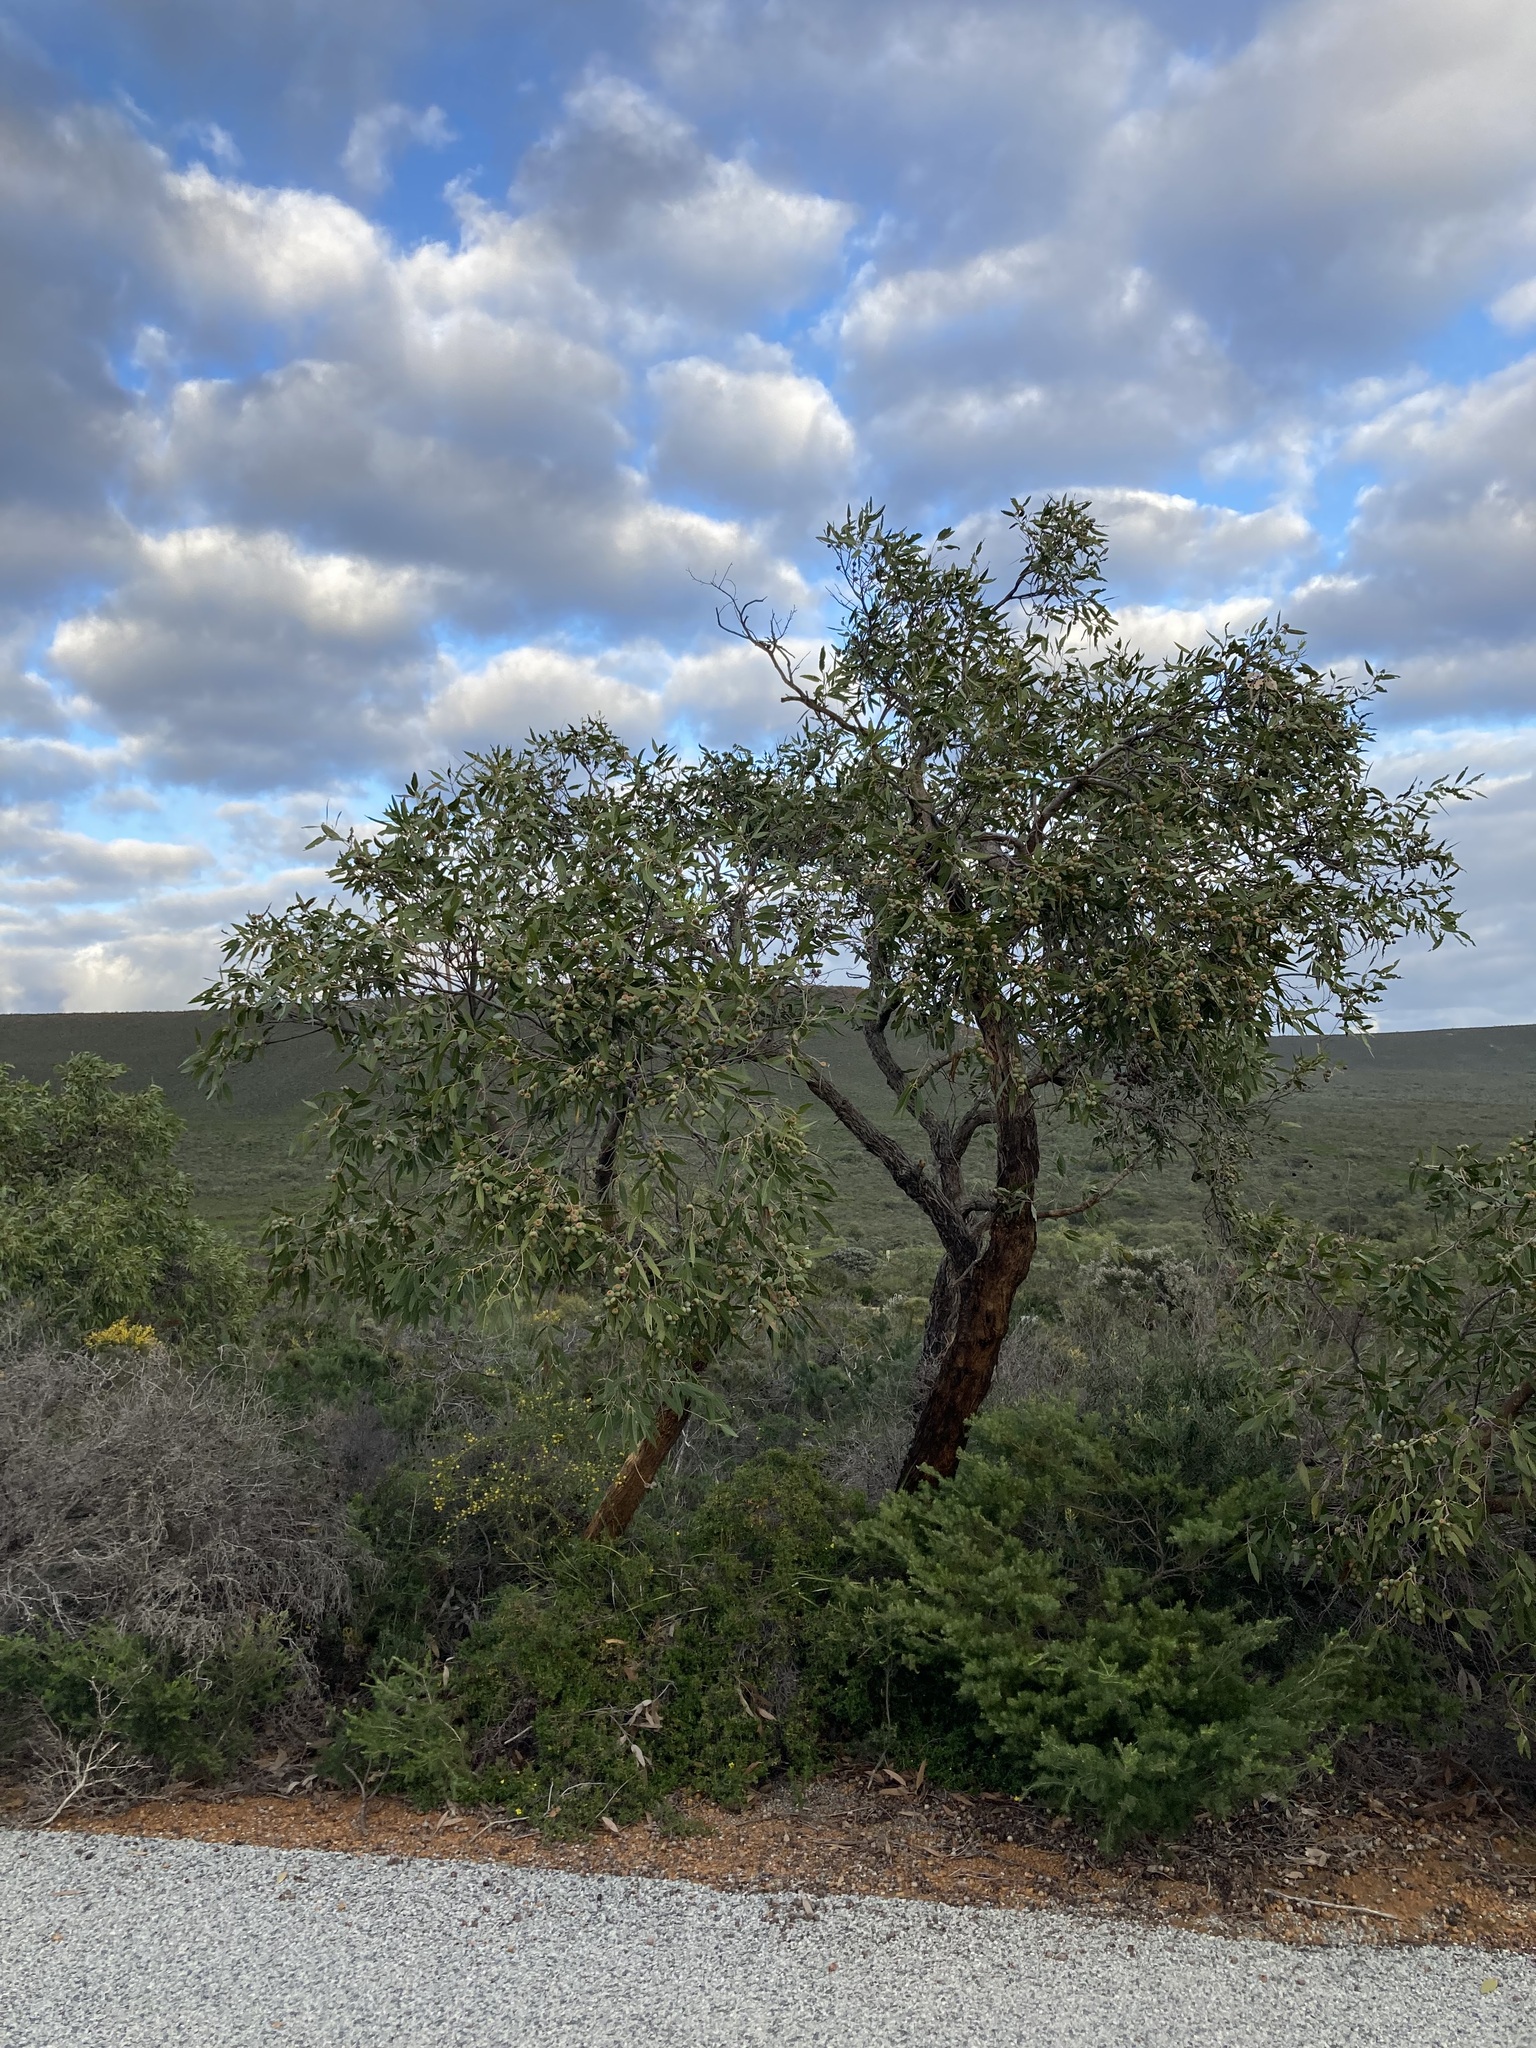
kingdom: Plantae
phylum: Tracheophyta
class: Magnoliopsida
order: Myrtales
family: Myrtaceae
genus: Eucalyptus
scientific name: Eucalyptus todtiana
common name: Coastal blackbutt
